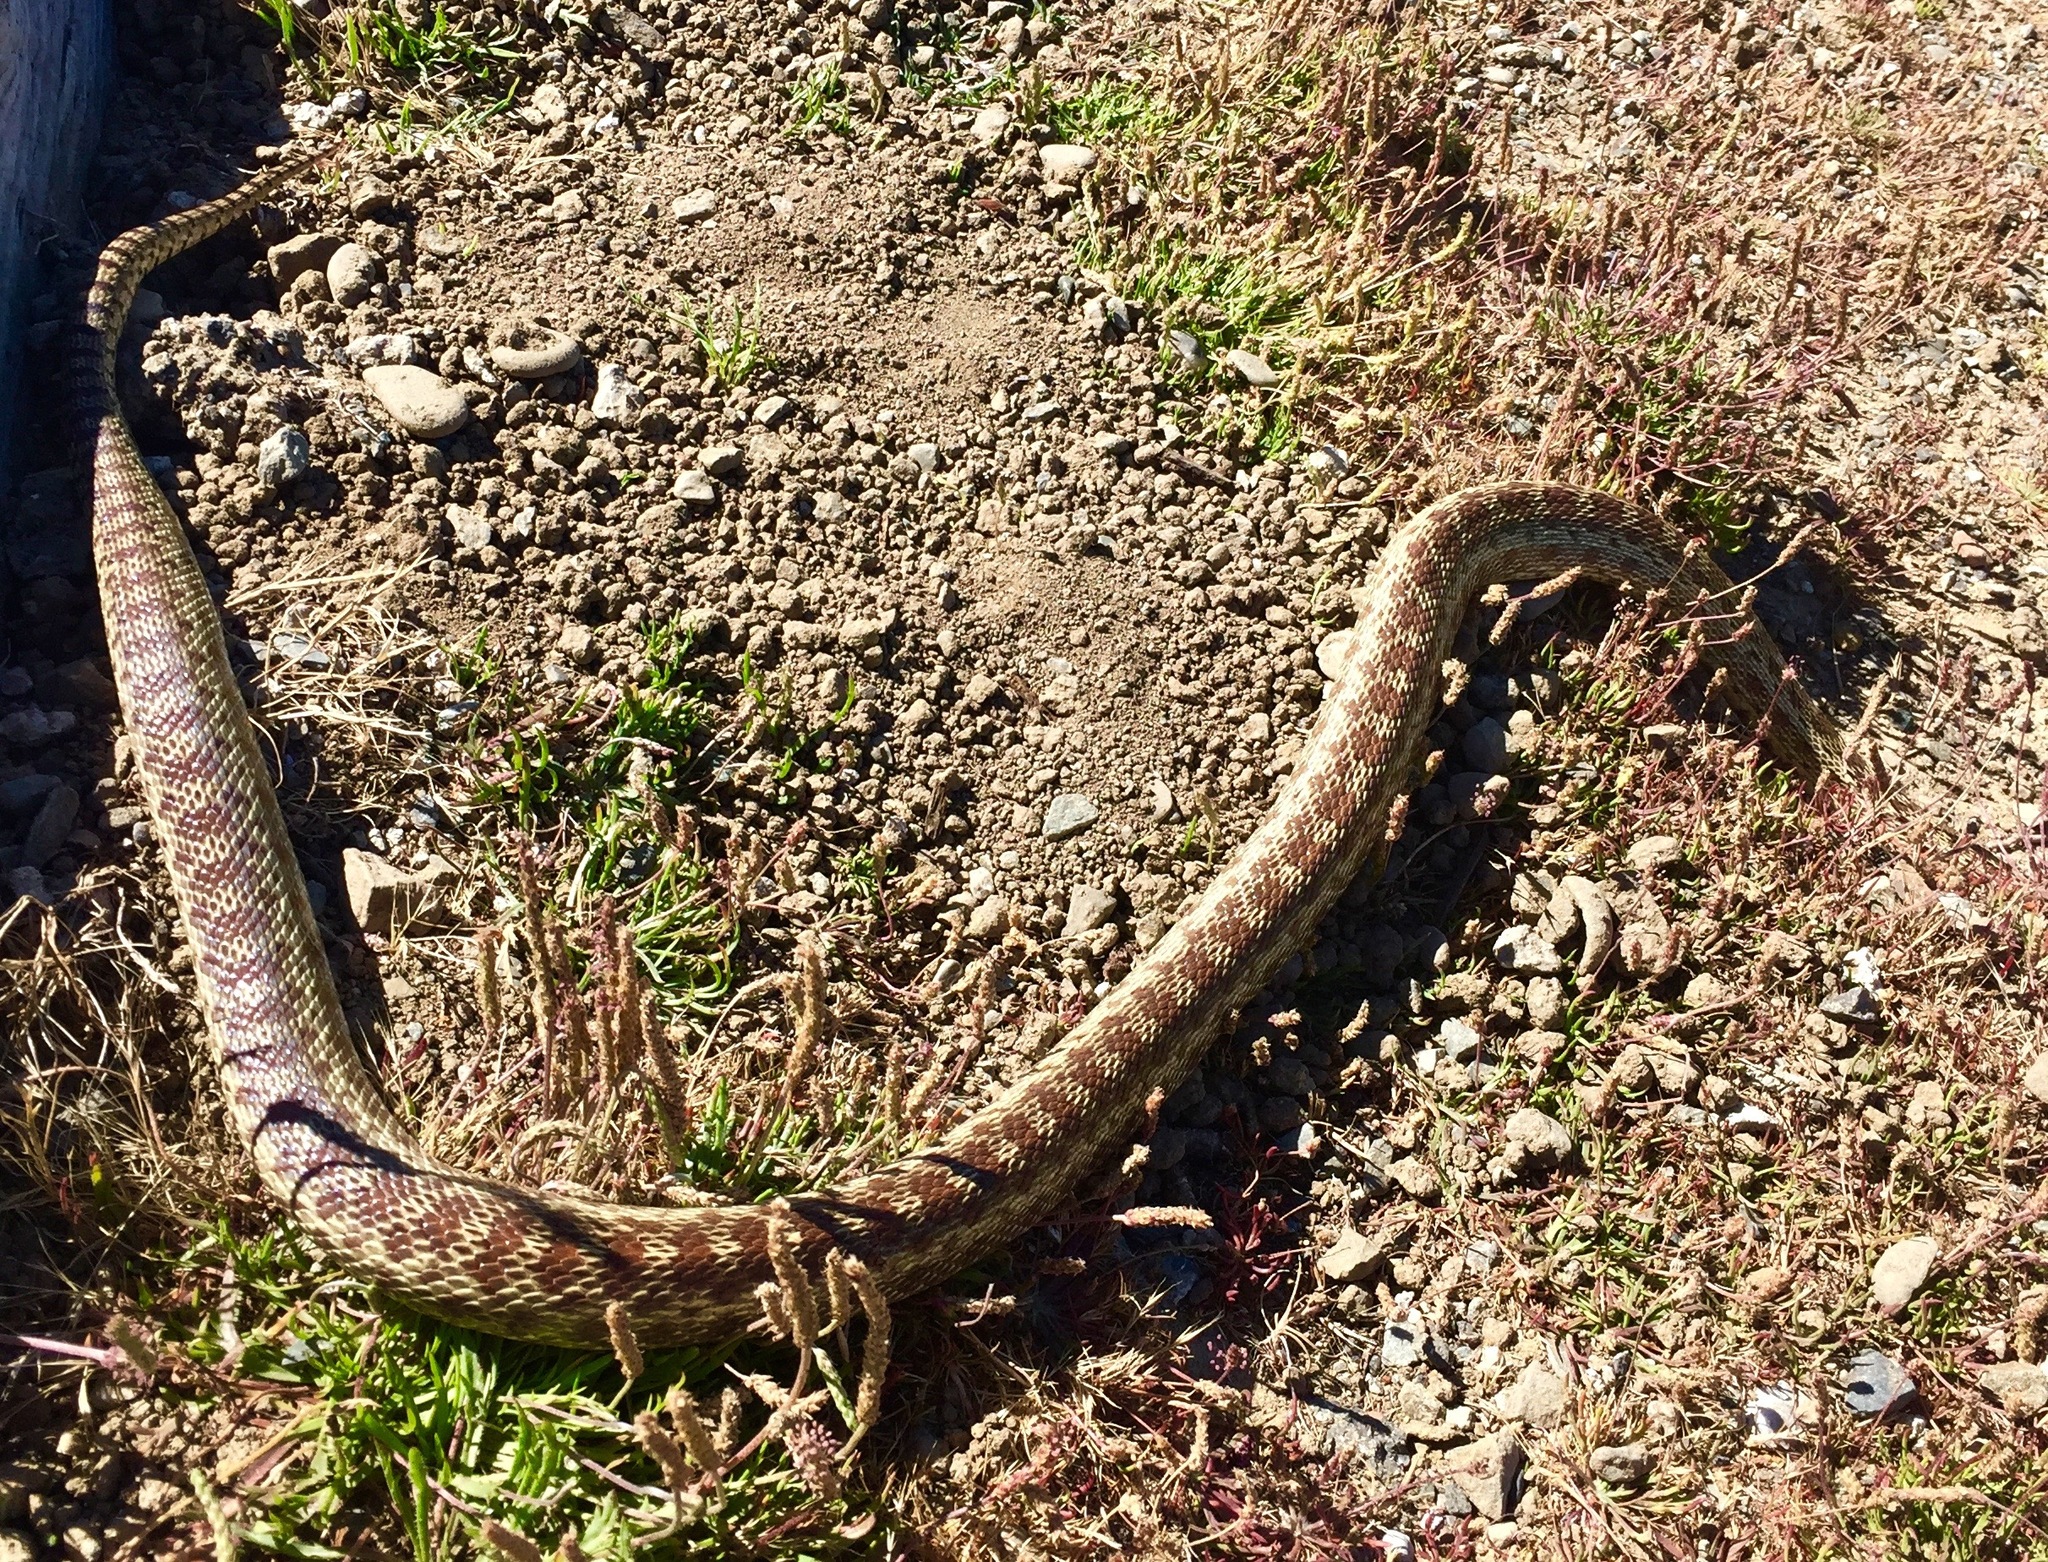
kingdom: Animalia
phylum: Chordata
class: Squamata
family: Colubridae
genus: Pituophis
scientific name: Pituophis catenifer
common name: Gopher snake
